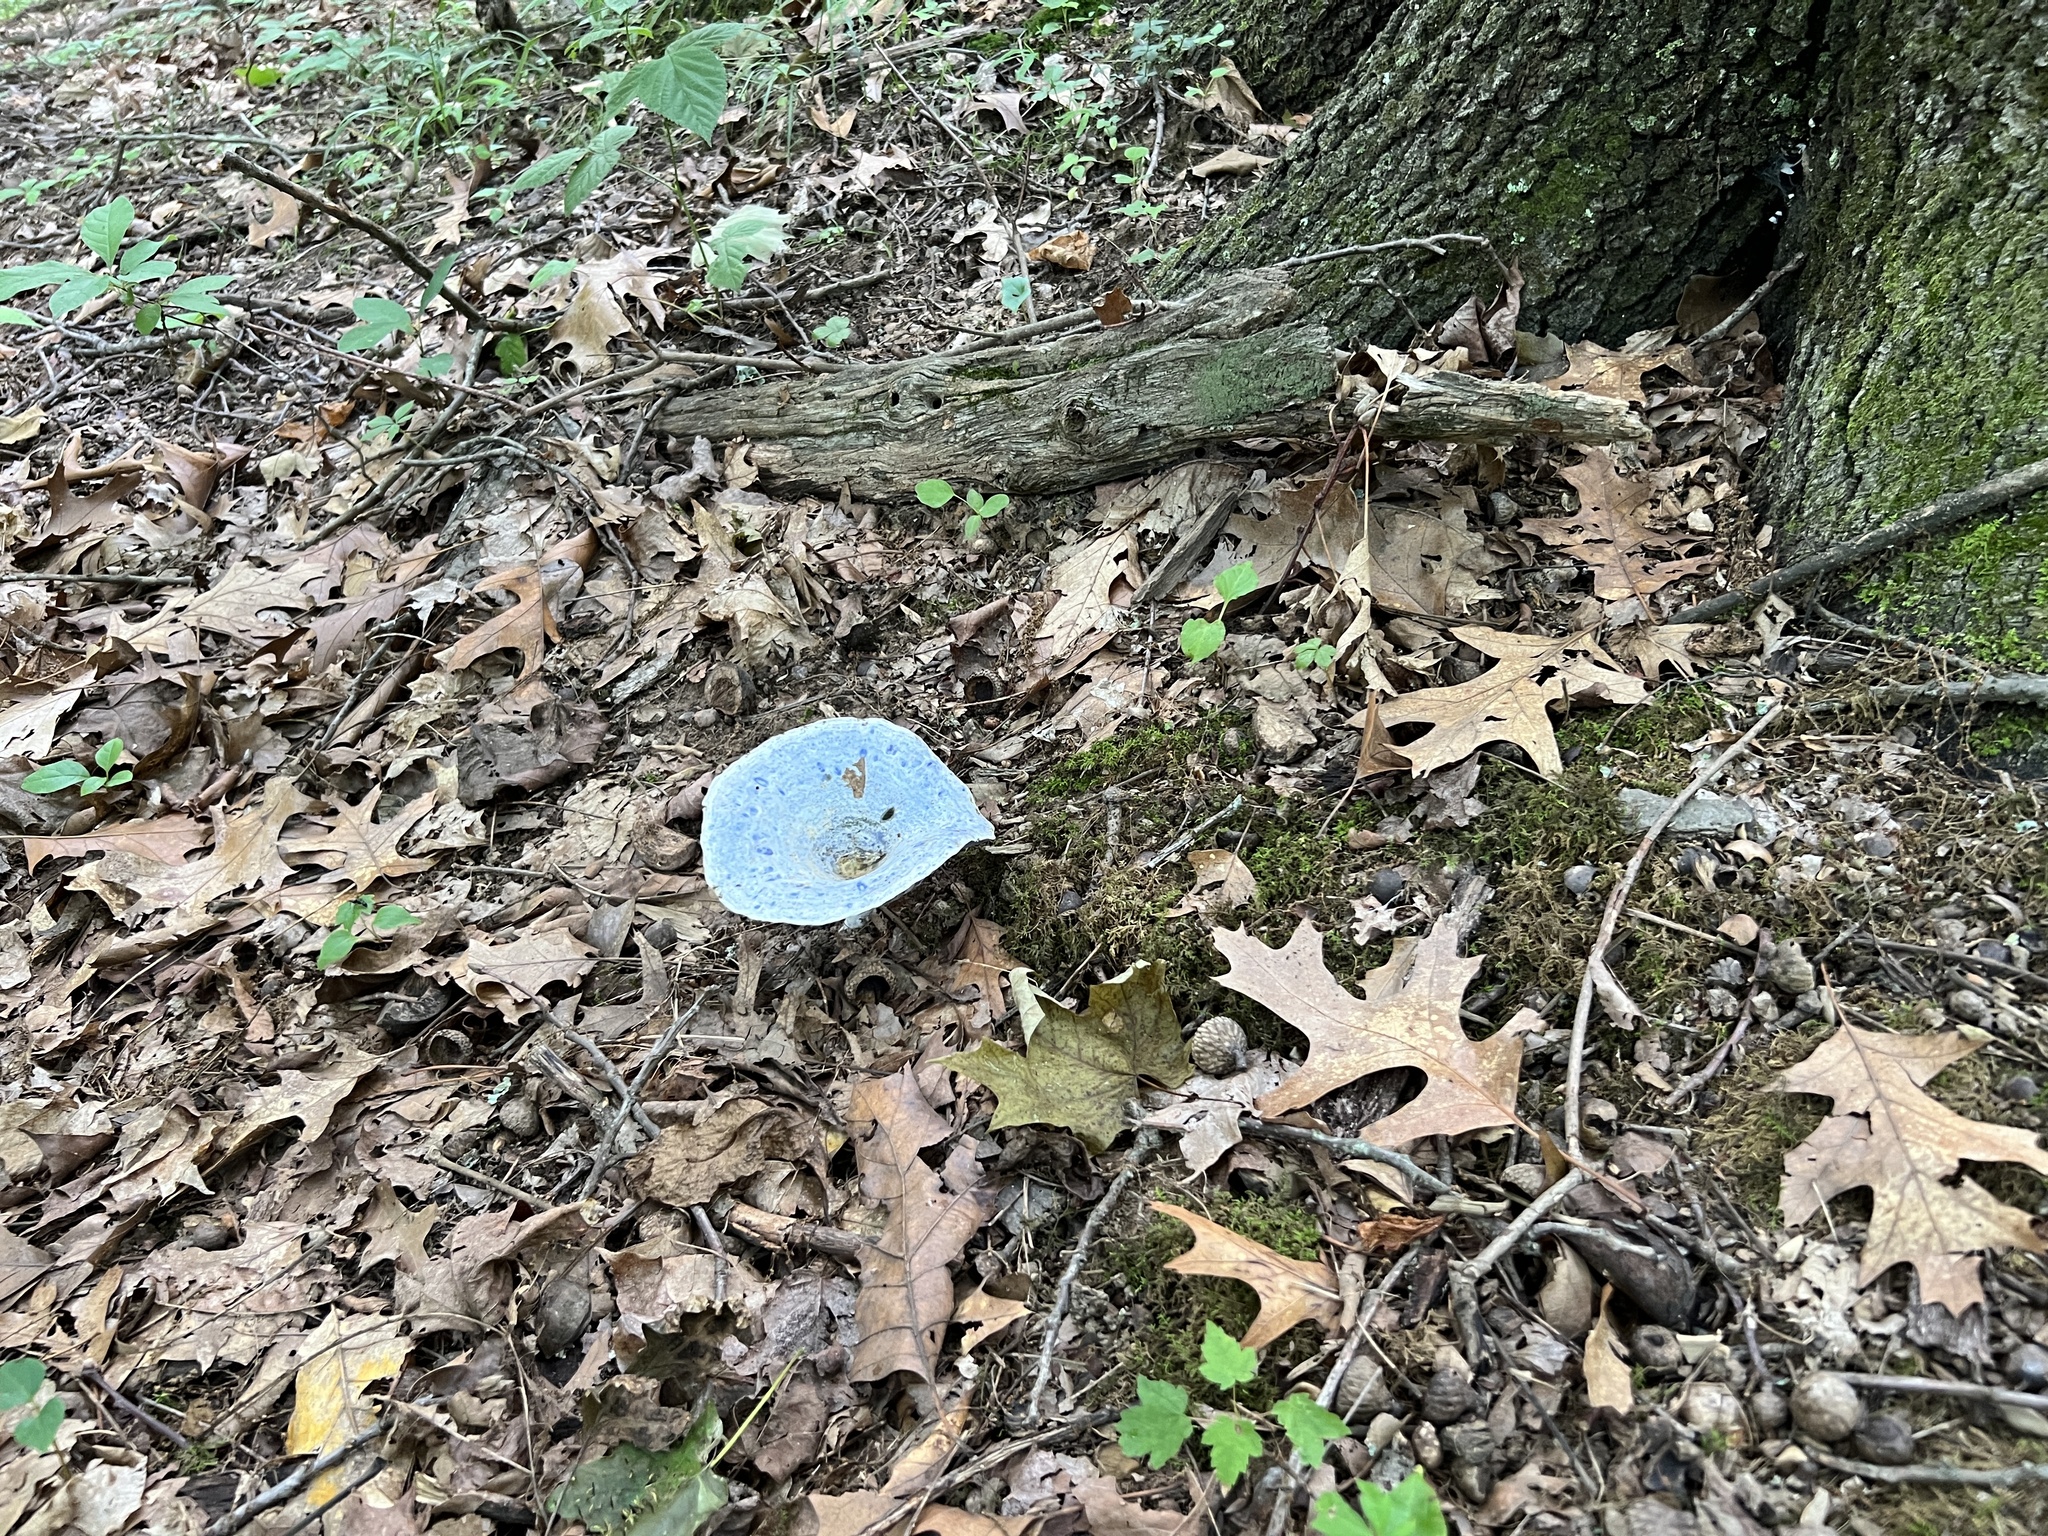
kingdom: Fungi
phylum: Basidiomycota
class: Agaricomycetes
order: Russulales
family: Russulaceae
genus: Lactarius
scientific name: Lactarius indigo
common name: Indigo milk cap
